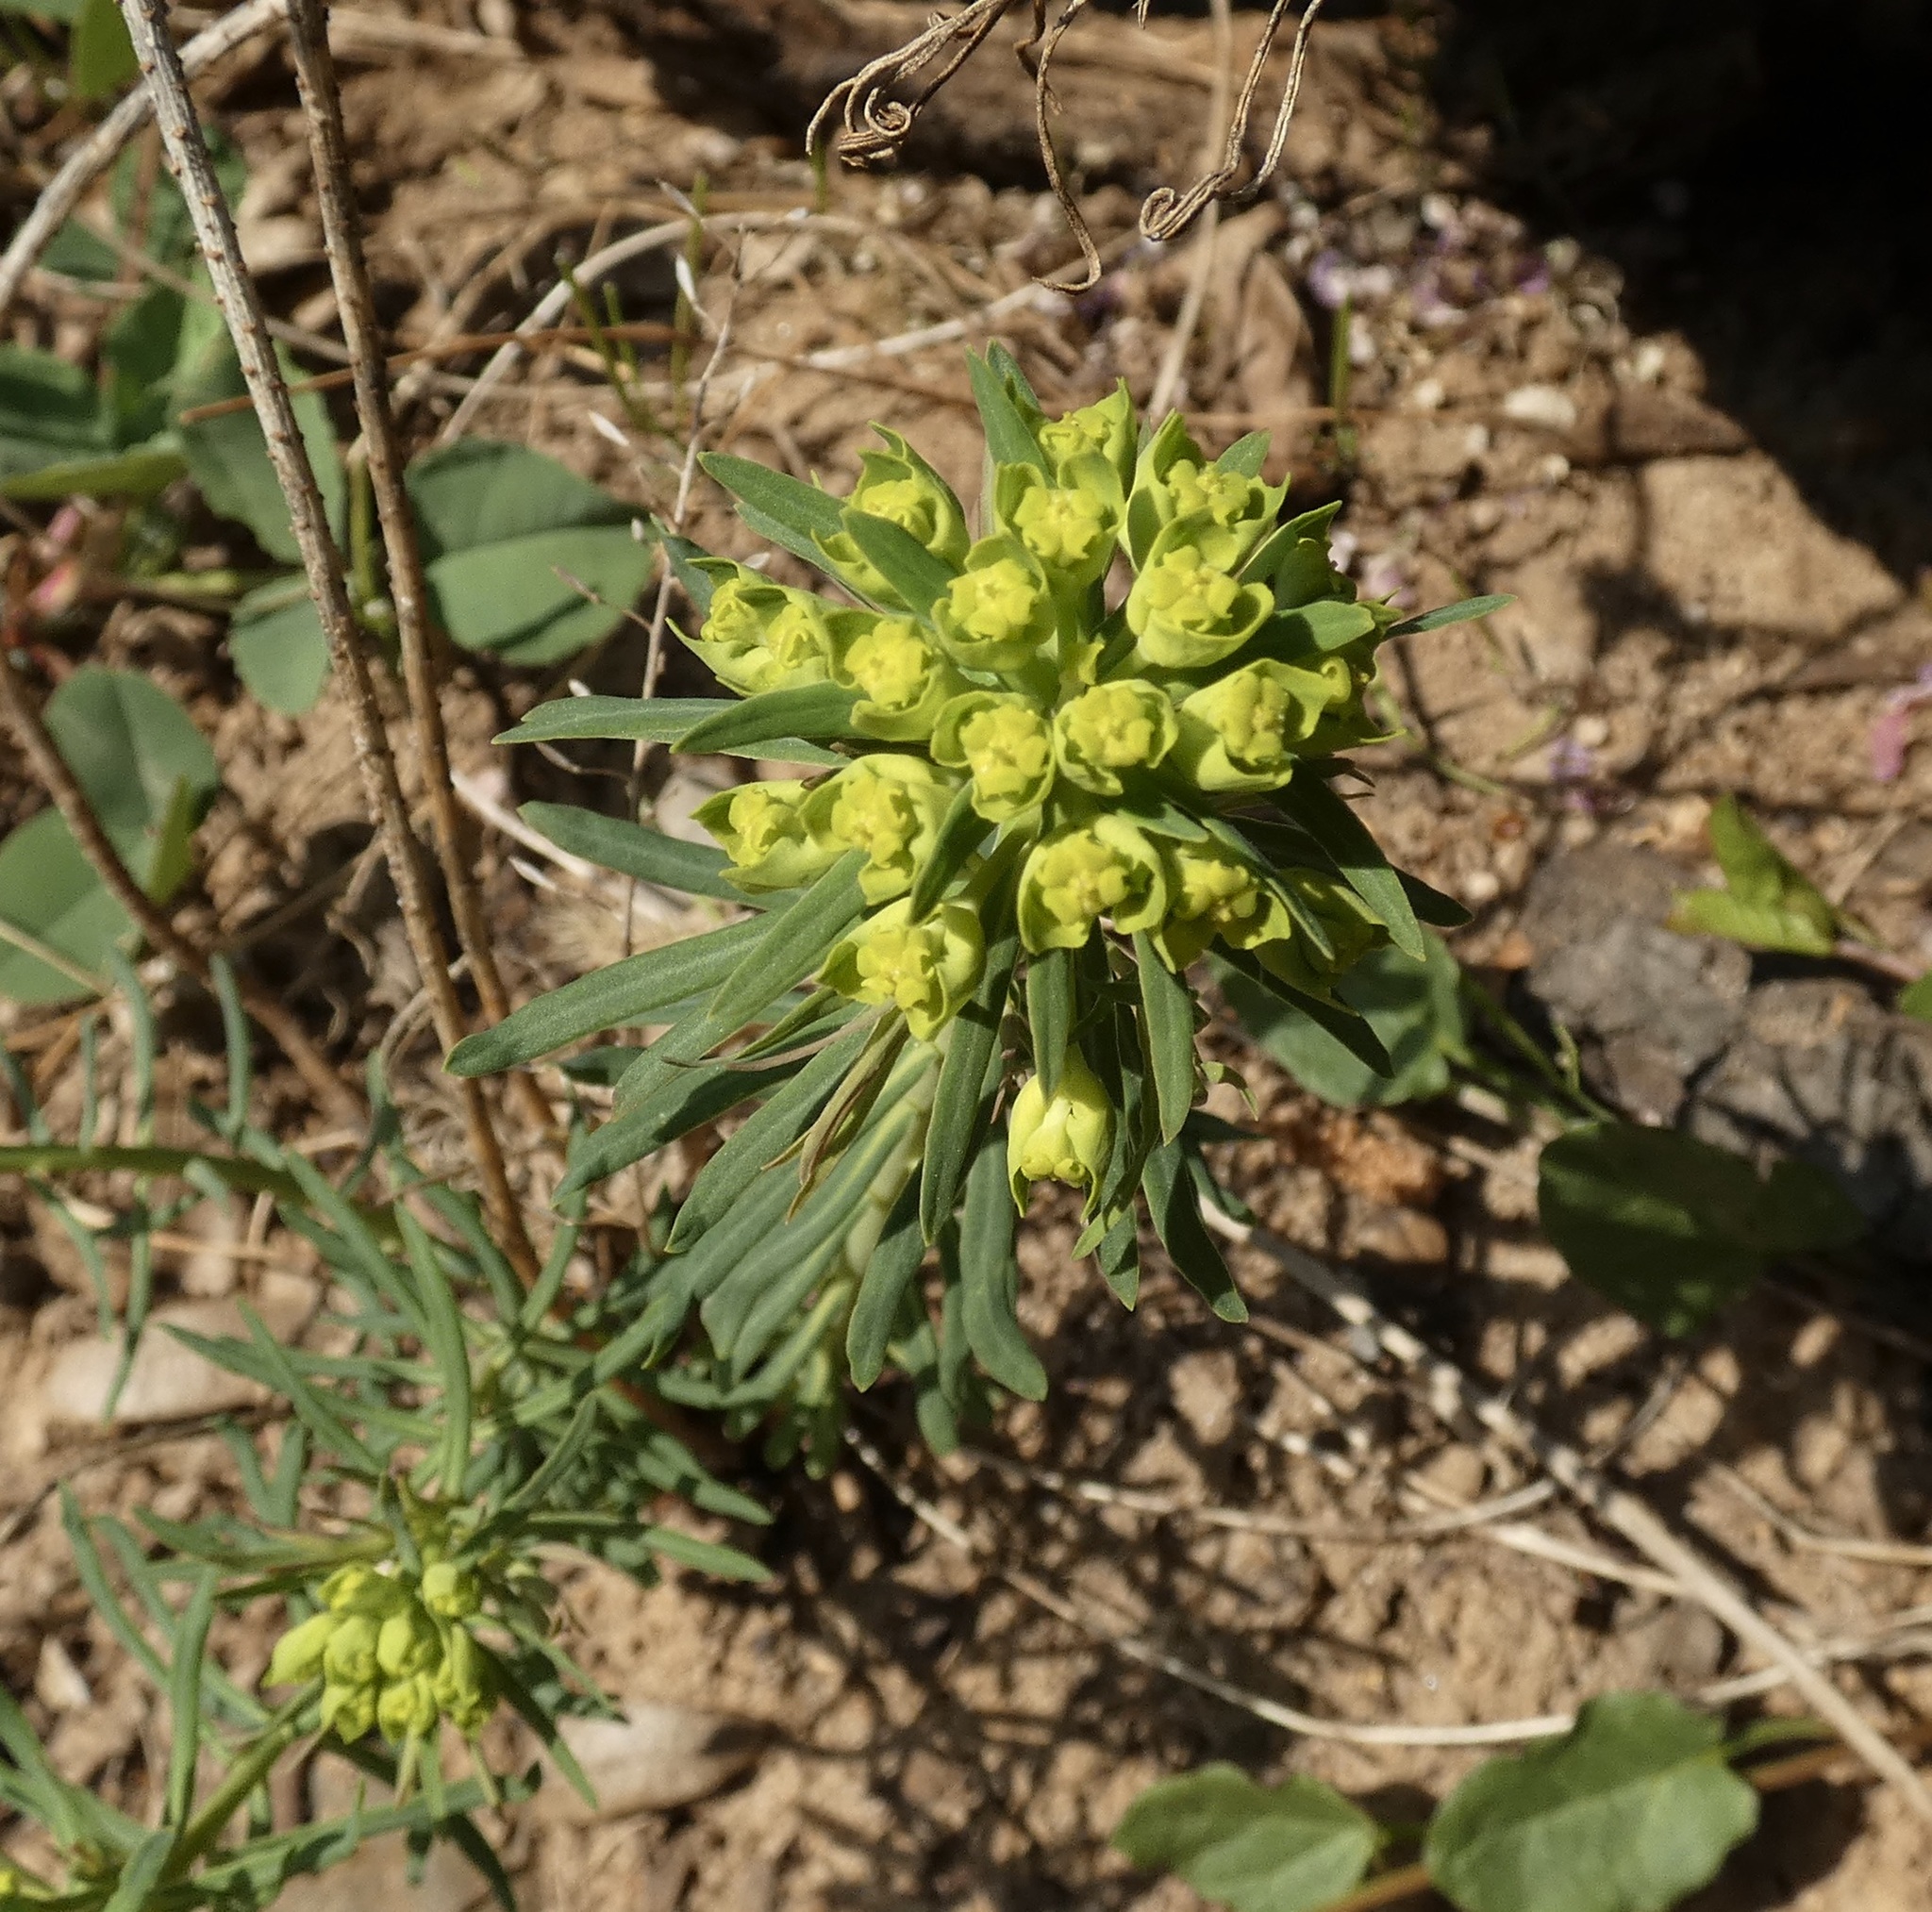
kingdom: Plantae
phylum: Tracheophyta
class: Magnoliopsida
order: Malpighiales
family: Euphorbiaceae
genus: Euphorbia
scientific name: Euphorbia cyparissias
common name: Cypress spurge
